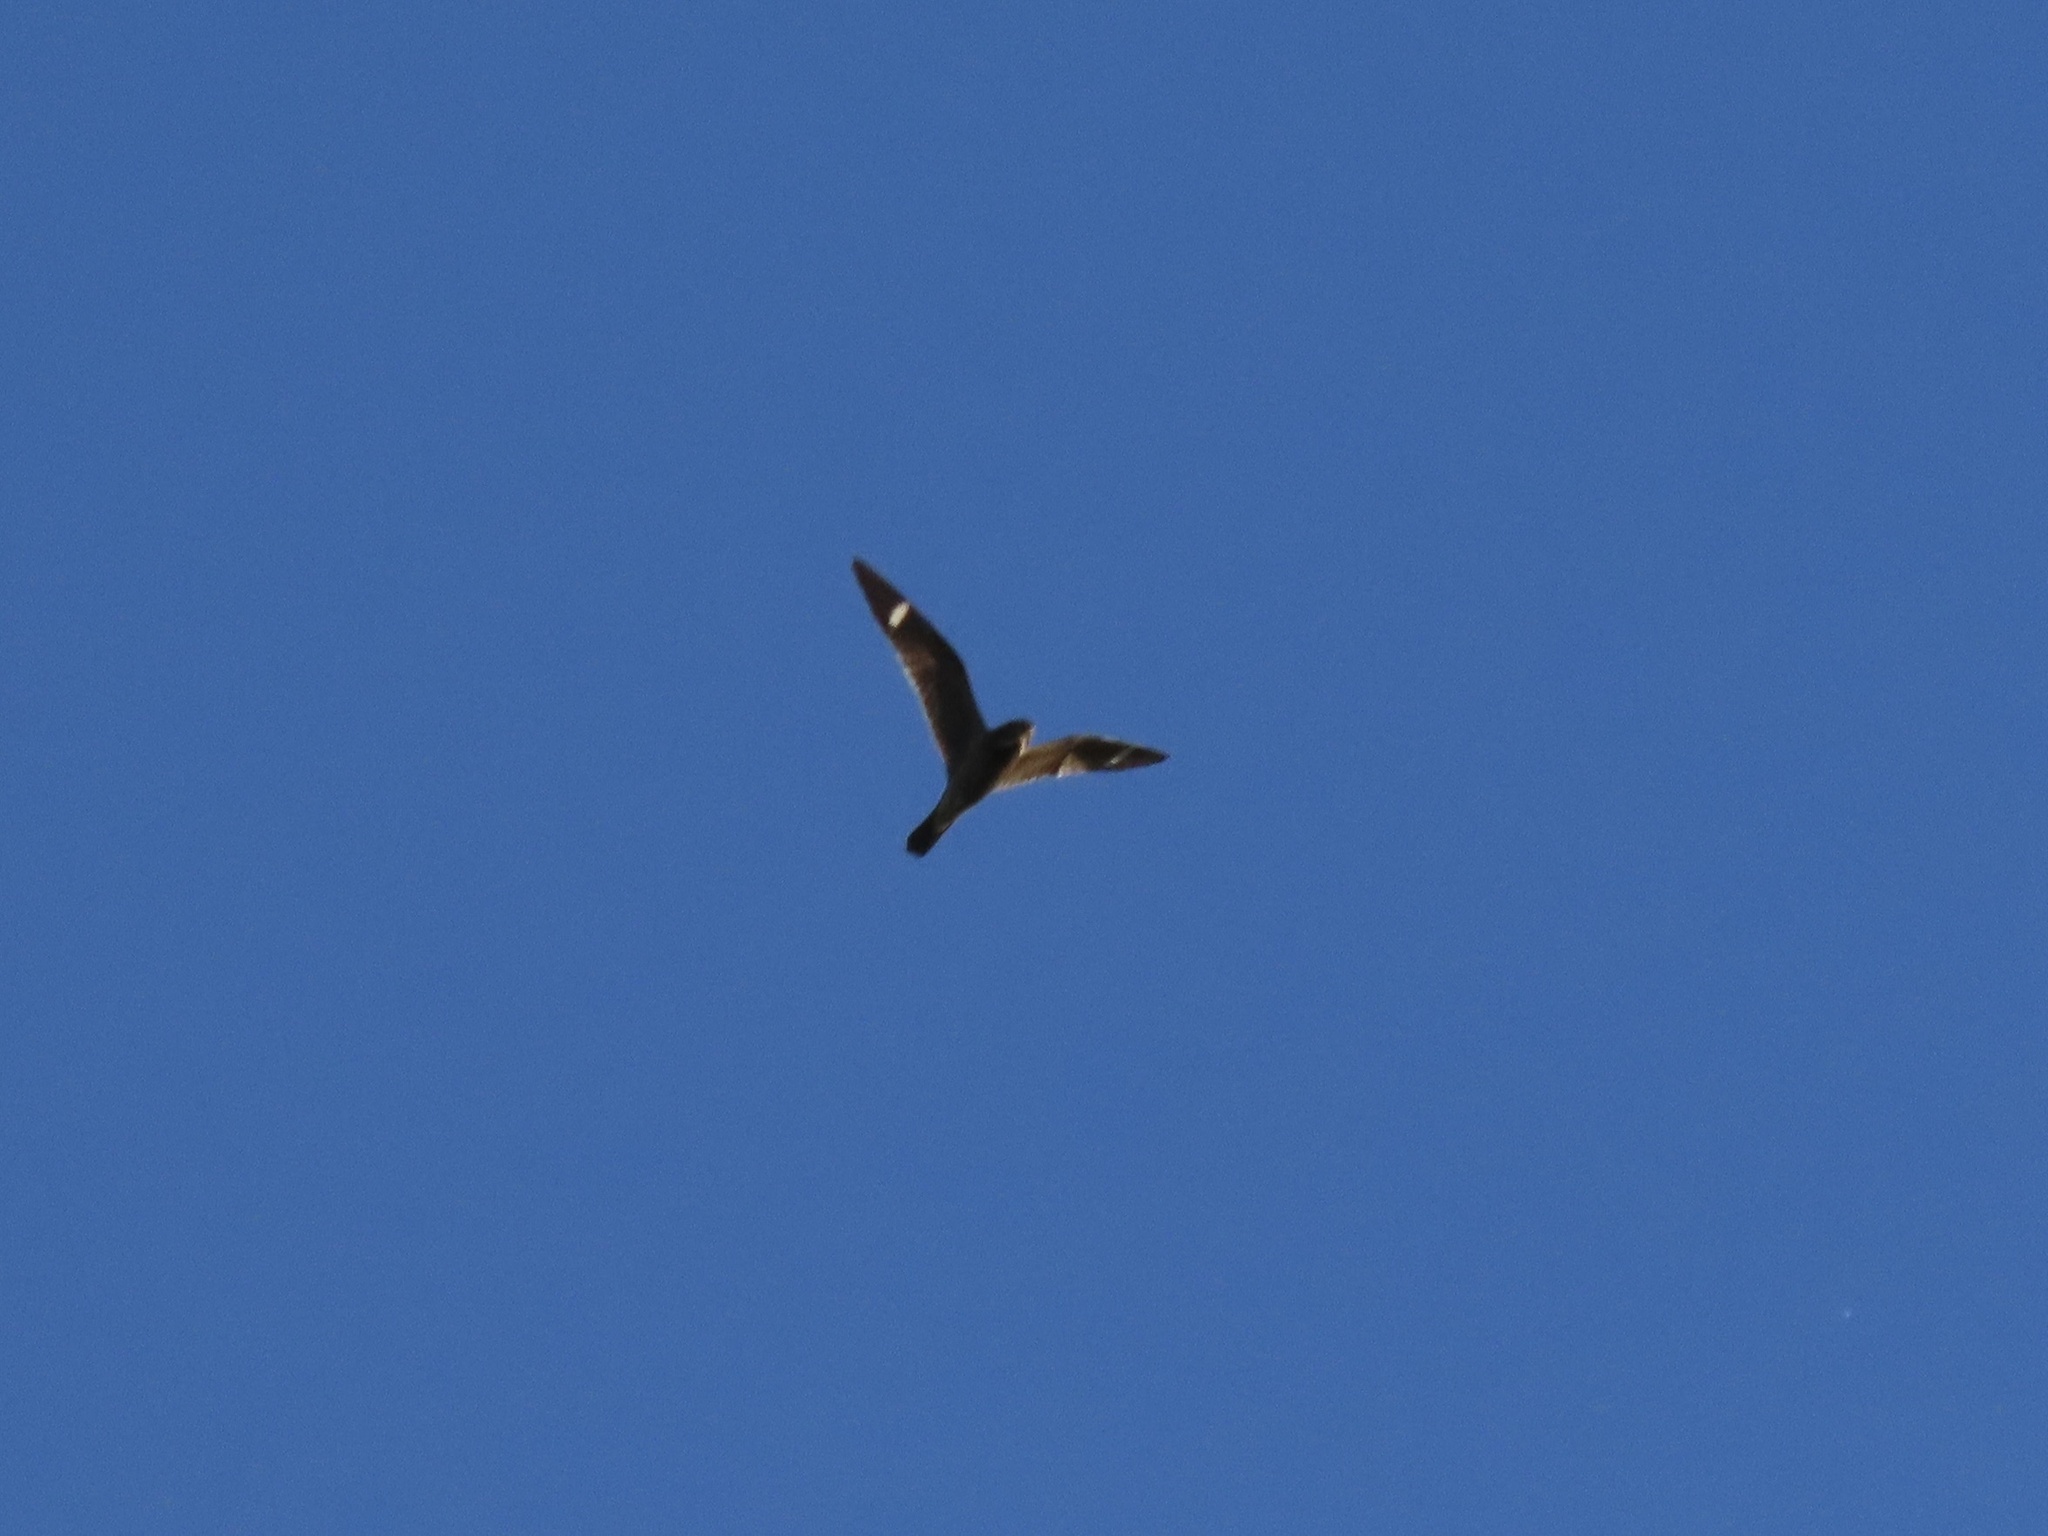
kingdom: Animalia
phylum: Chordata
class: Aves
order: Caprimulgiformes
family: Caprimulgidae
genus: Chordeiles
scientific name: Chordeiles minor
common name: Common nighthawk
